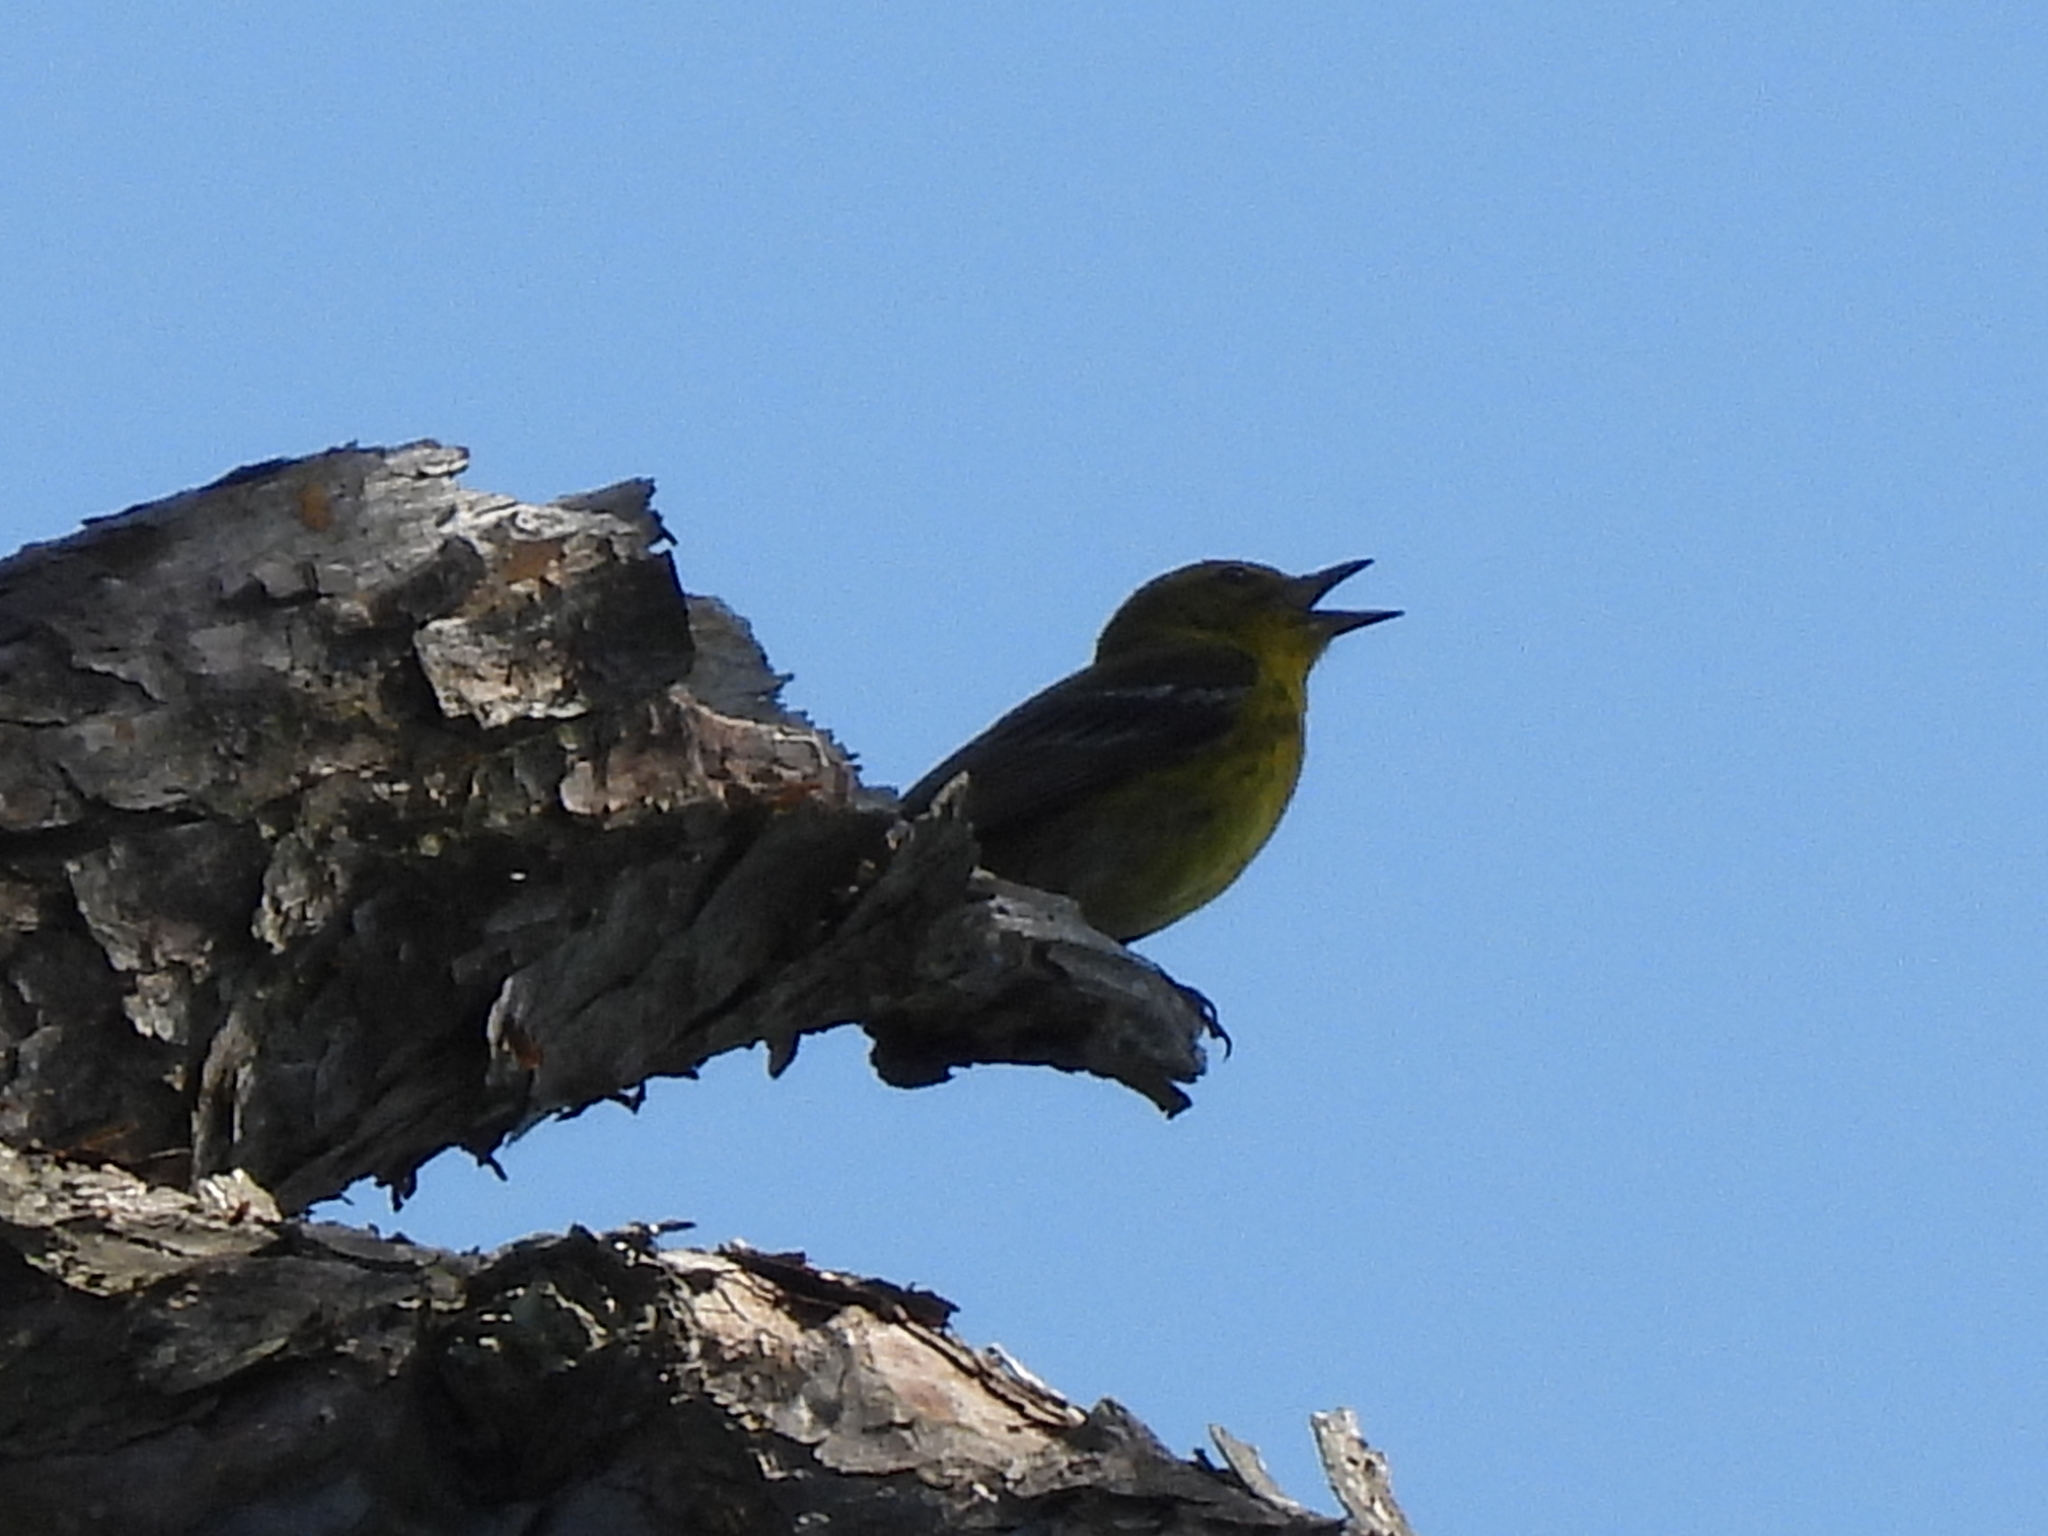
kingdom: Animalia
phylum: Chordata
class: Aves
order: Passeriformes
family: Parulidae
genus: Setophaga
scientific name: Setophaga pinus
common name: Pine warbler
